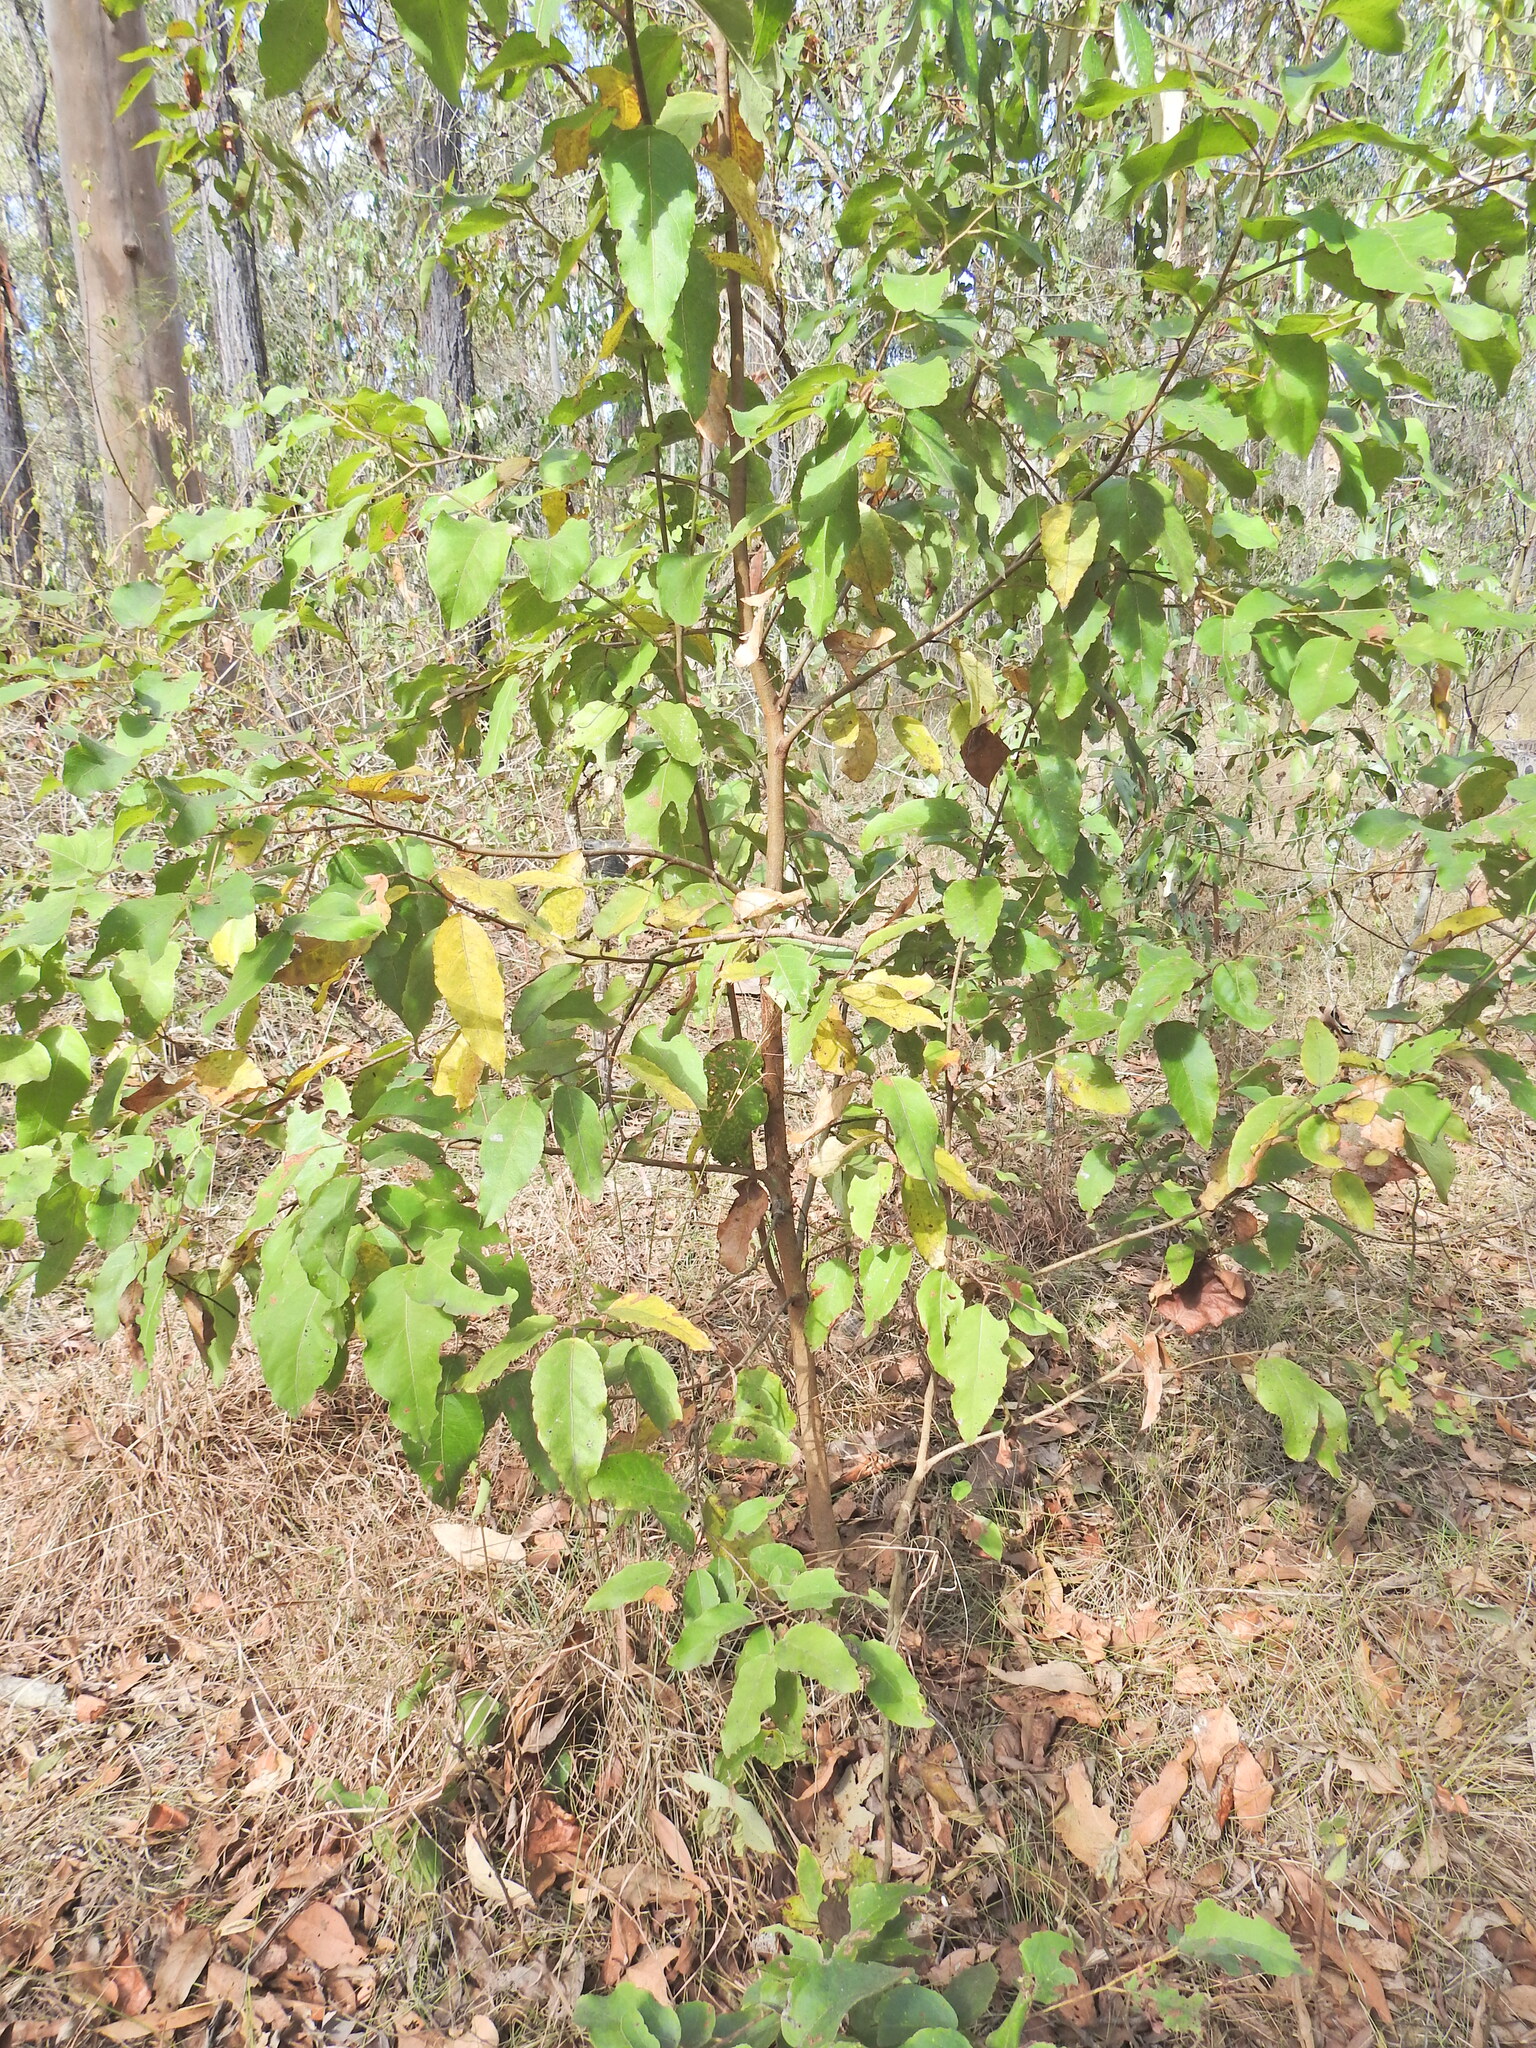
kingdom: Plantae
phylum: Tracheophyta
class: Magnoliopsida
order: Myrtales
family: Myrtaceae
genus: Corymbia
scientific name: Corymbia torelliana
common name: Cadaghi
